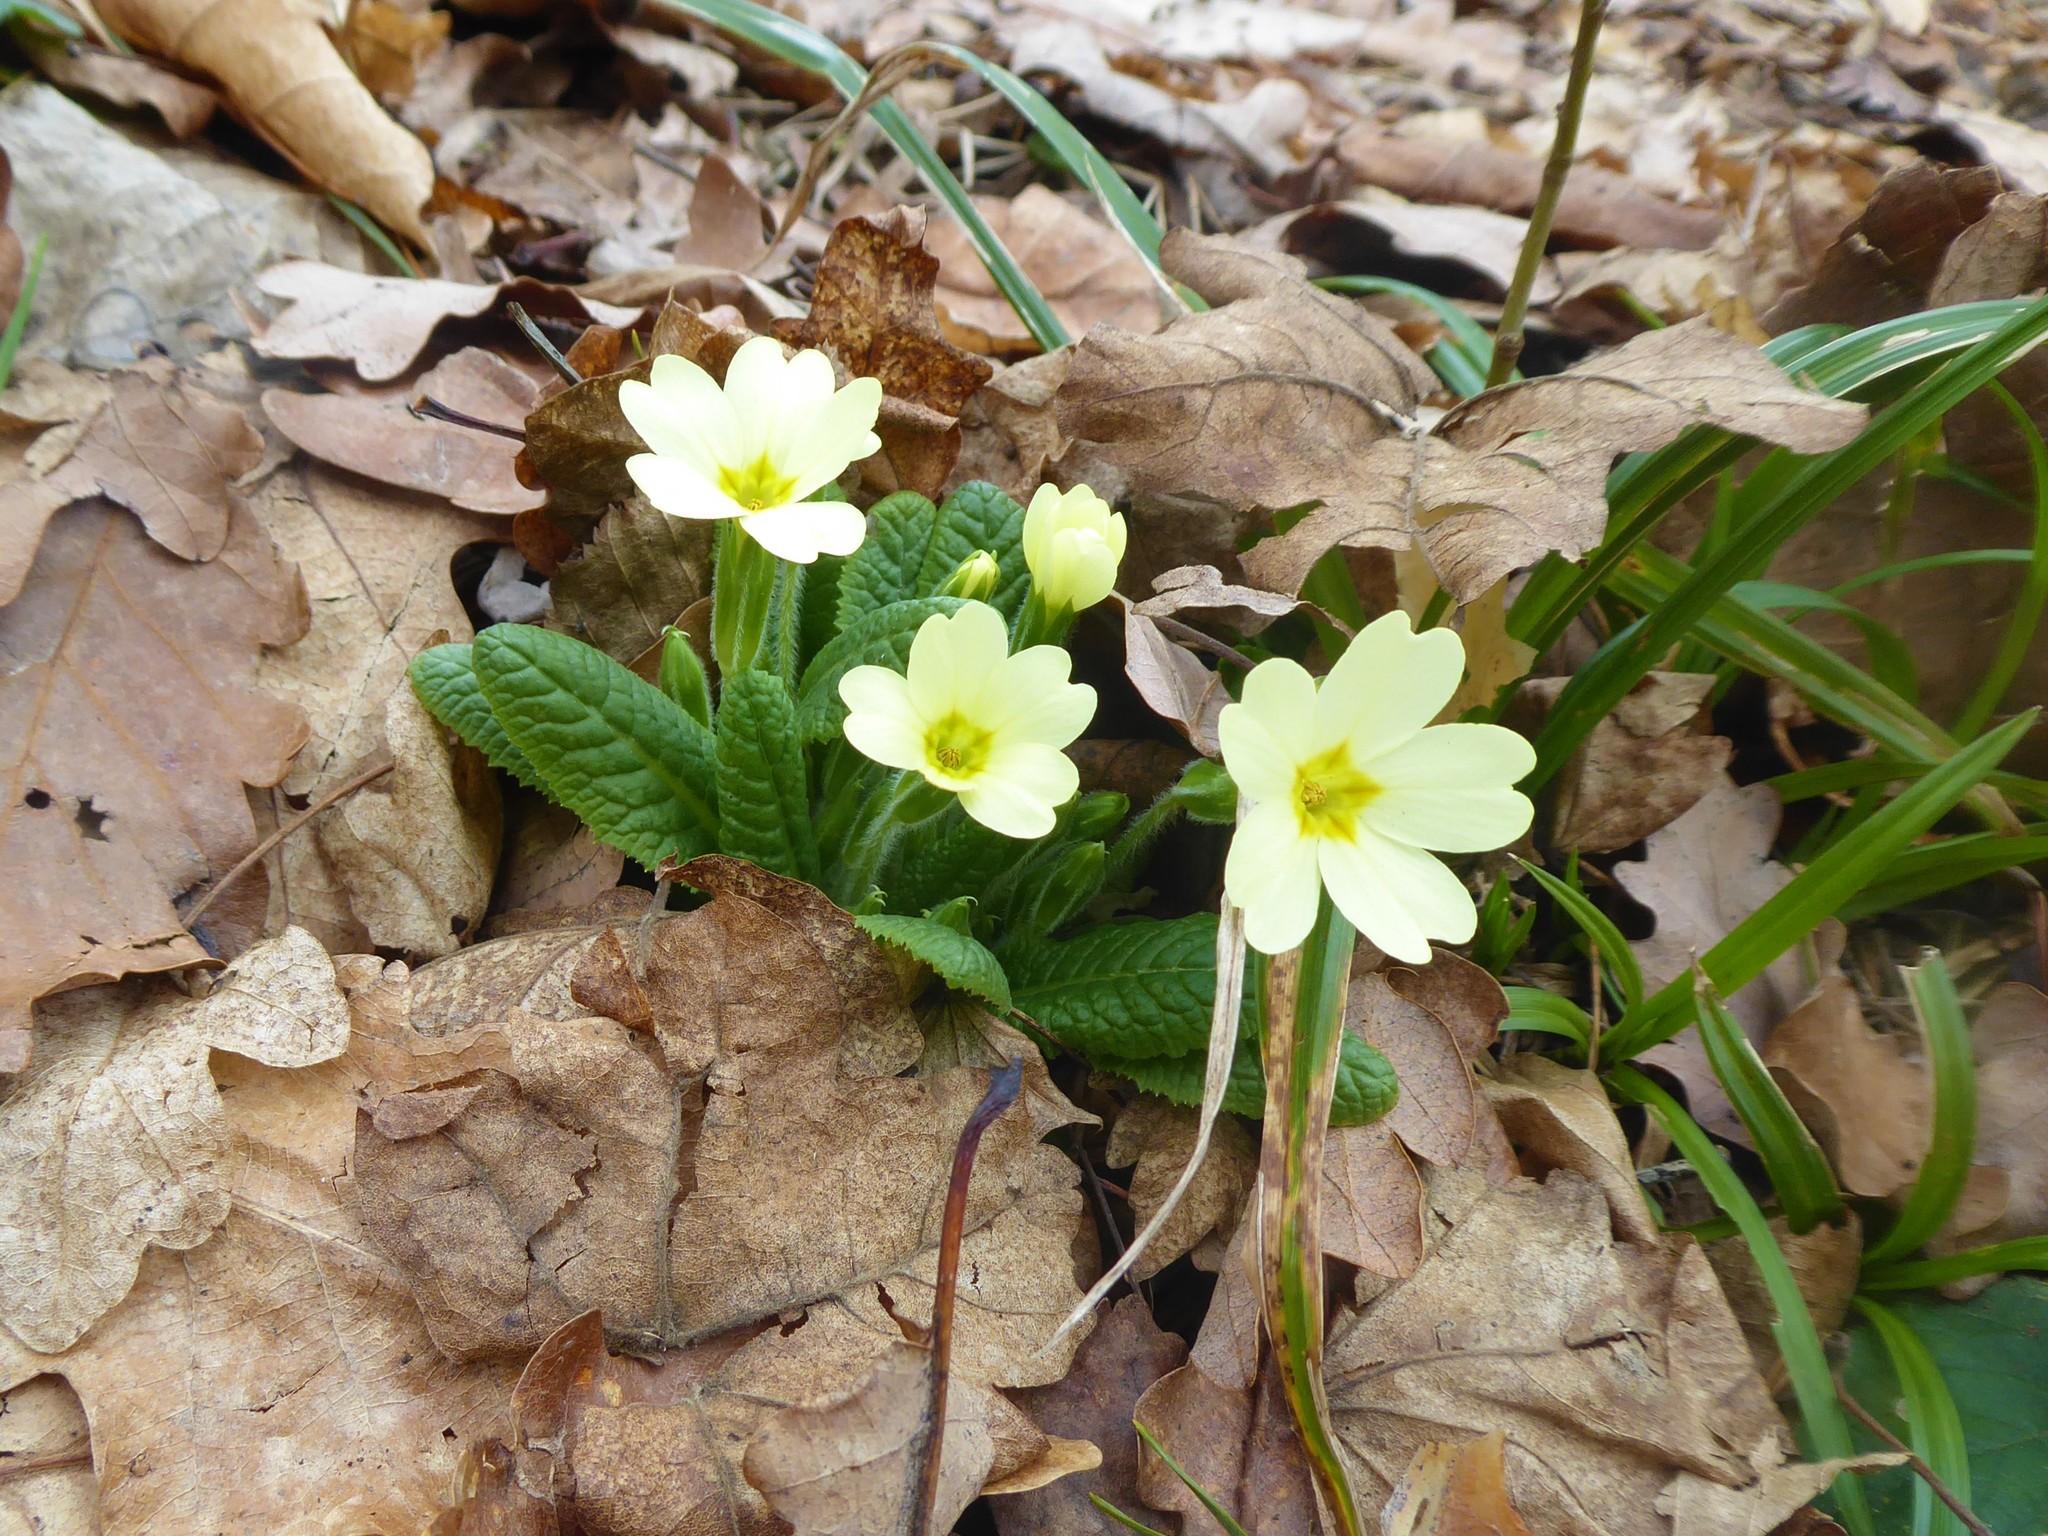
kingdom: Plantae
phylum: Tracheophyta
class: Magnoliopsida
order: Ericales
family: Primulaceae
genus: Primula
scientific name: Primula vulgaris
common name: Primrose
